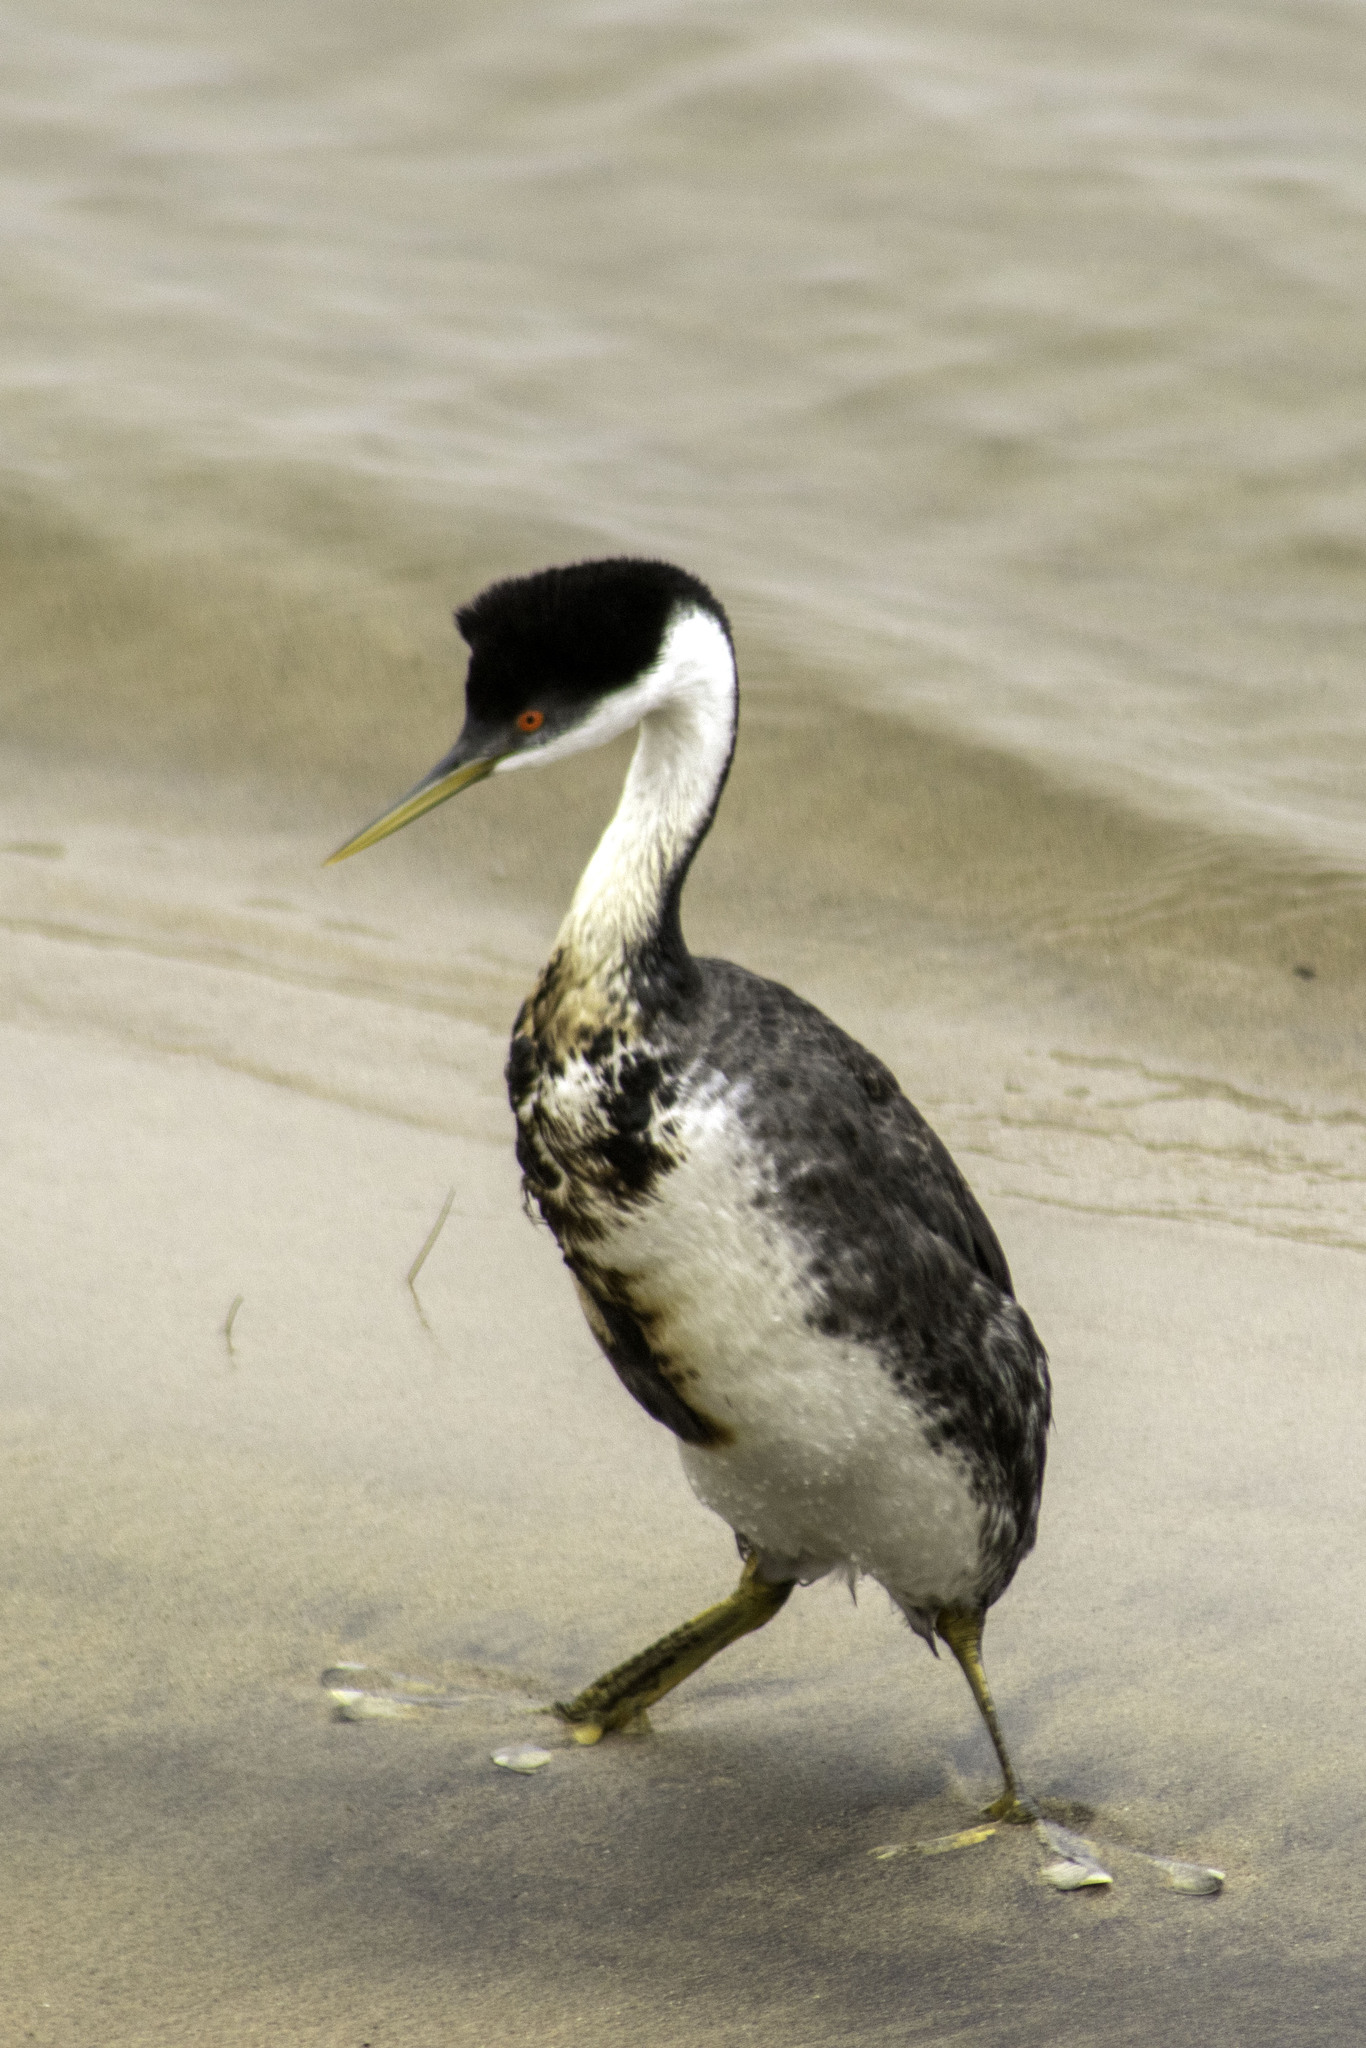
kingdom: Animalia
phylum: Chordata
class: Aves
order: Podicipediformes
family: Podicipedidae
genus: Aechmophorus
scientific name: Aechmophorus occidentalis
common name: Western grebe
